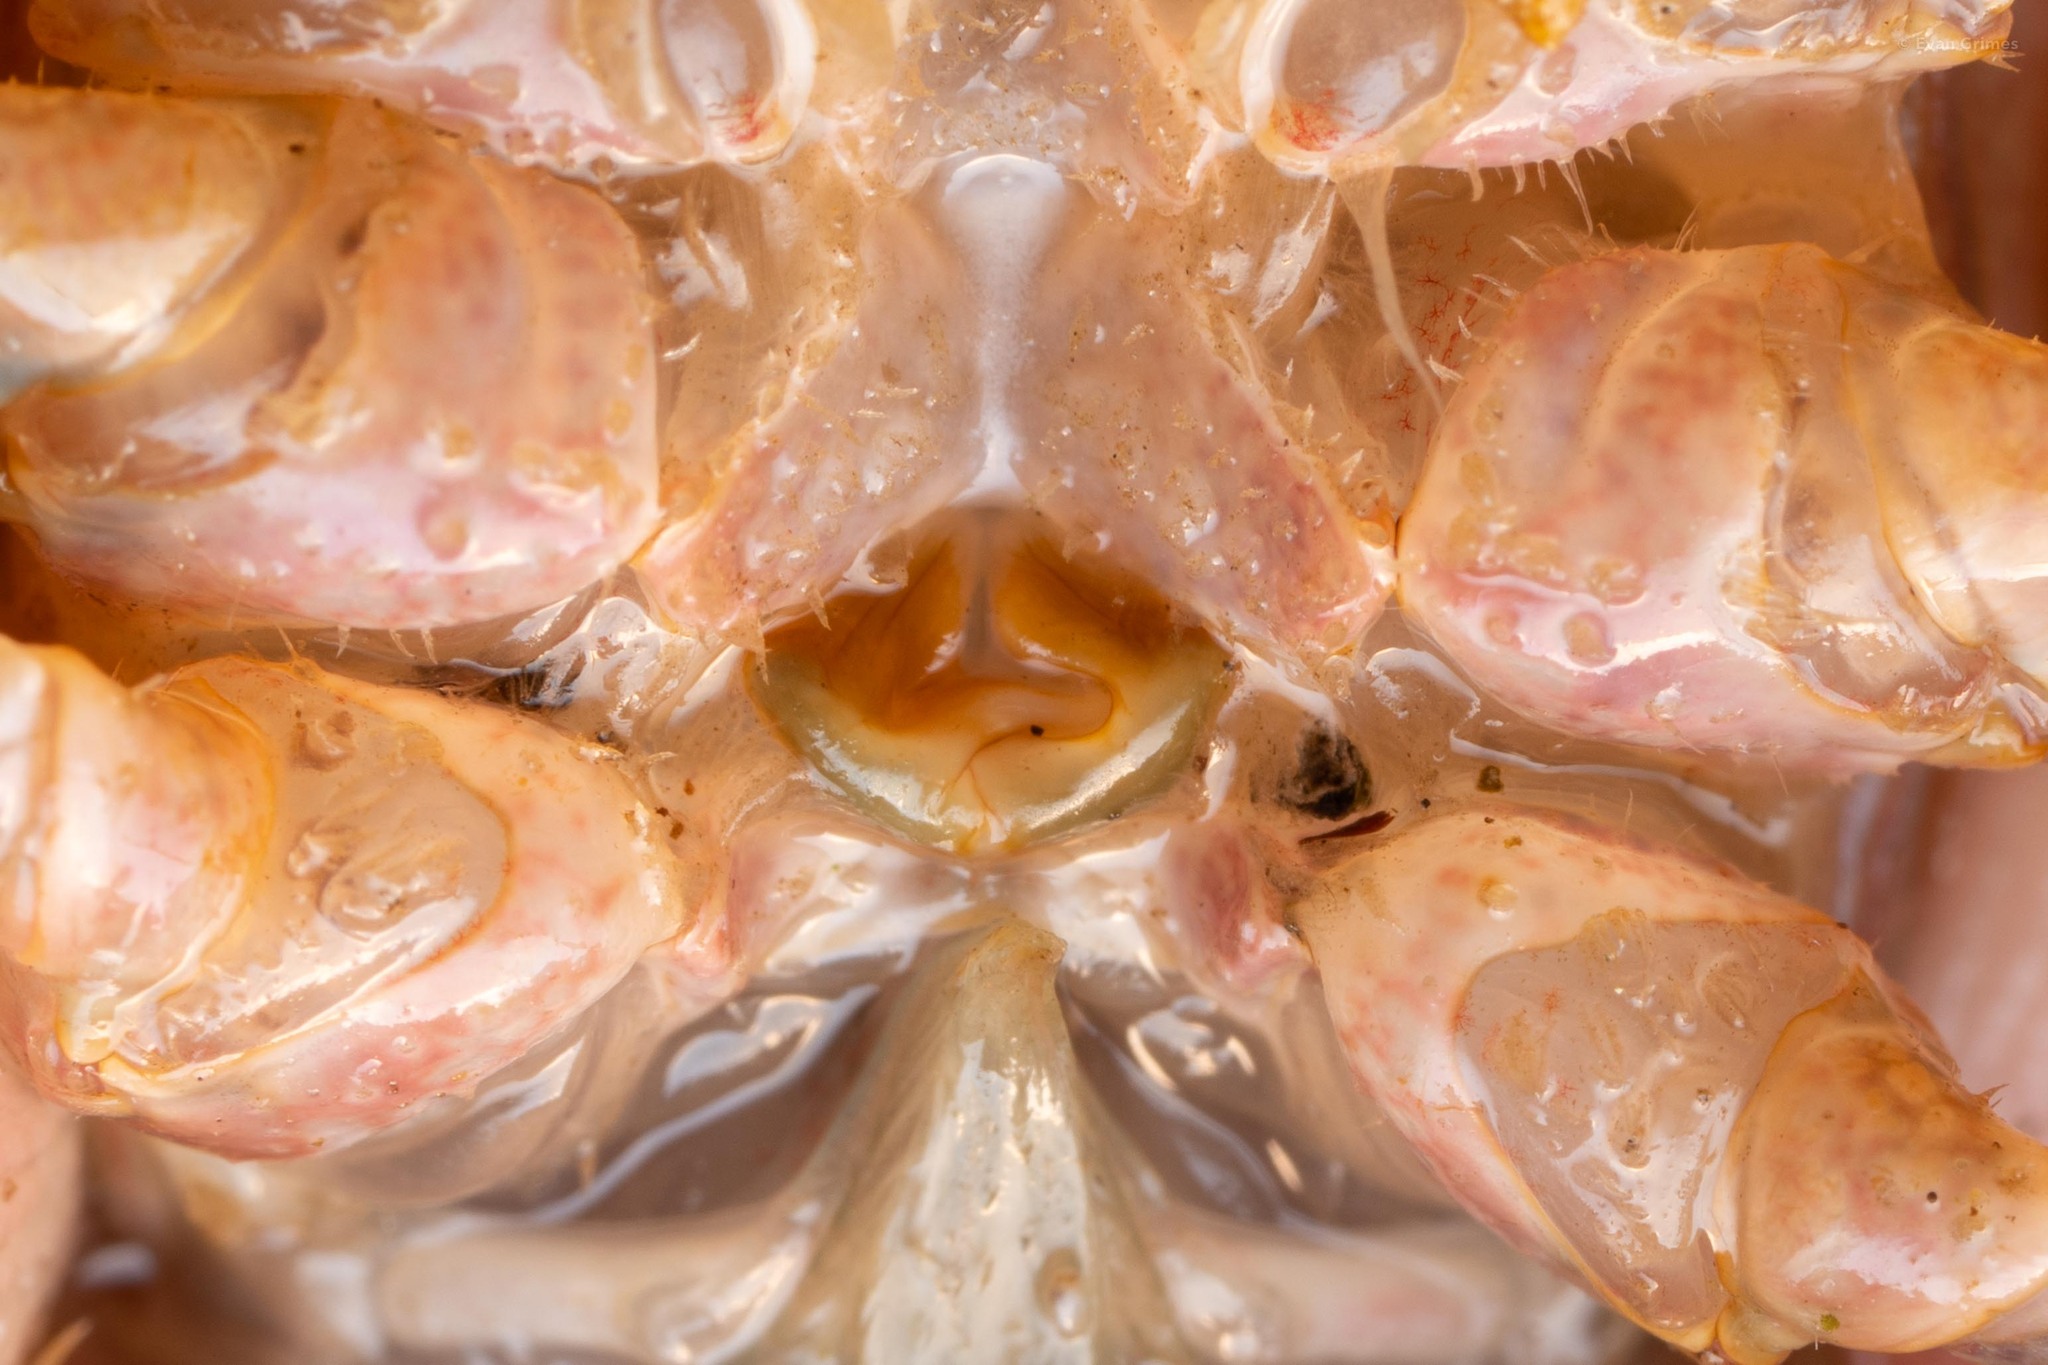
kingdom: Animalia
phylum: Arthropoda
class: Malacostraca
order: Decapoda
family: Cambaridae
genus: Cambarus
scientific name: Cambarus bartonii
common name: Appalachian brook crayfish
